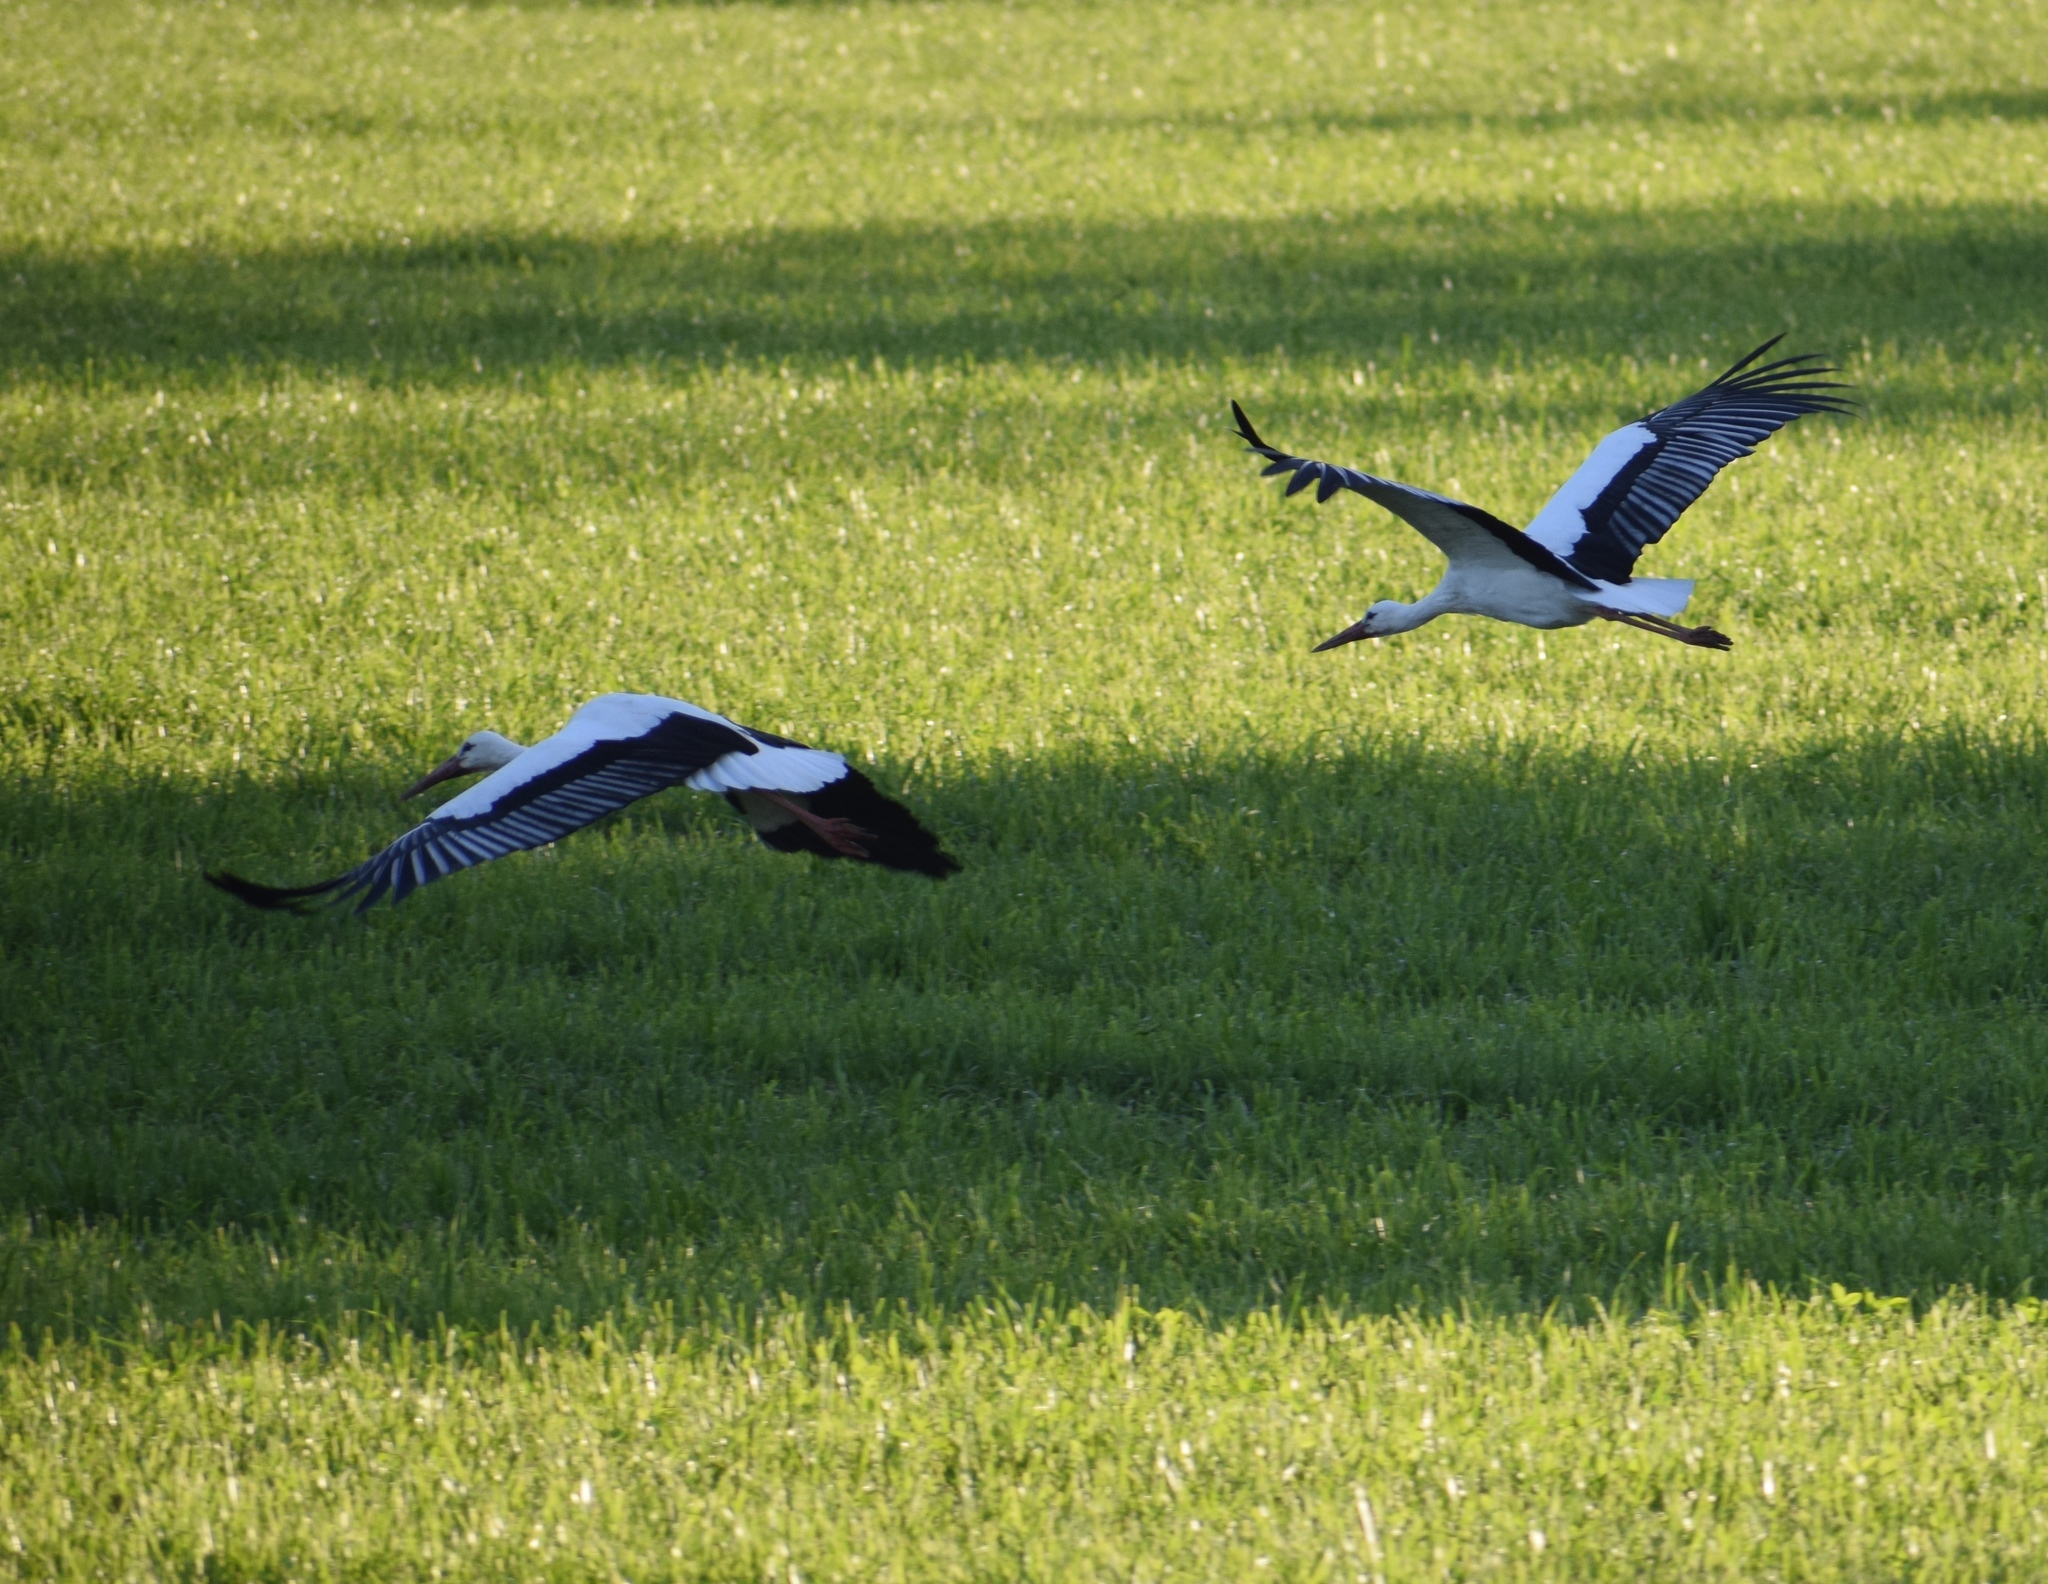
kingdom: Animalia
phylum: Chordata
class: Aves
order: Ciconiiformes
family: Ciconiidae
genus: Ciconia
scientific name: Ciconia ciconia
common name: White stork
